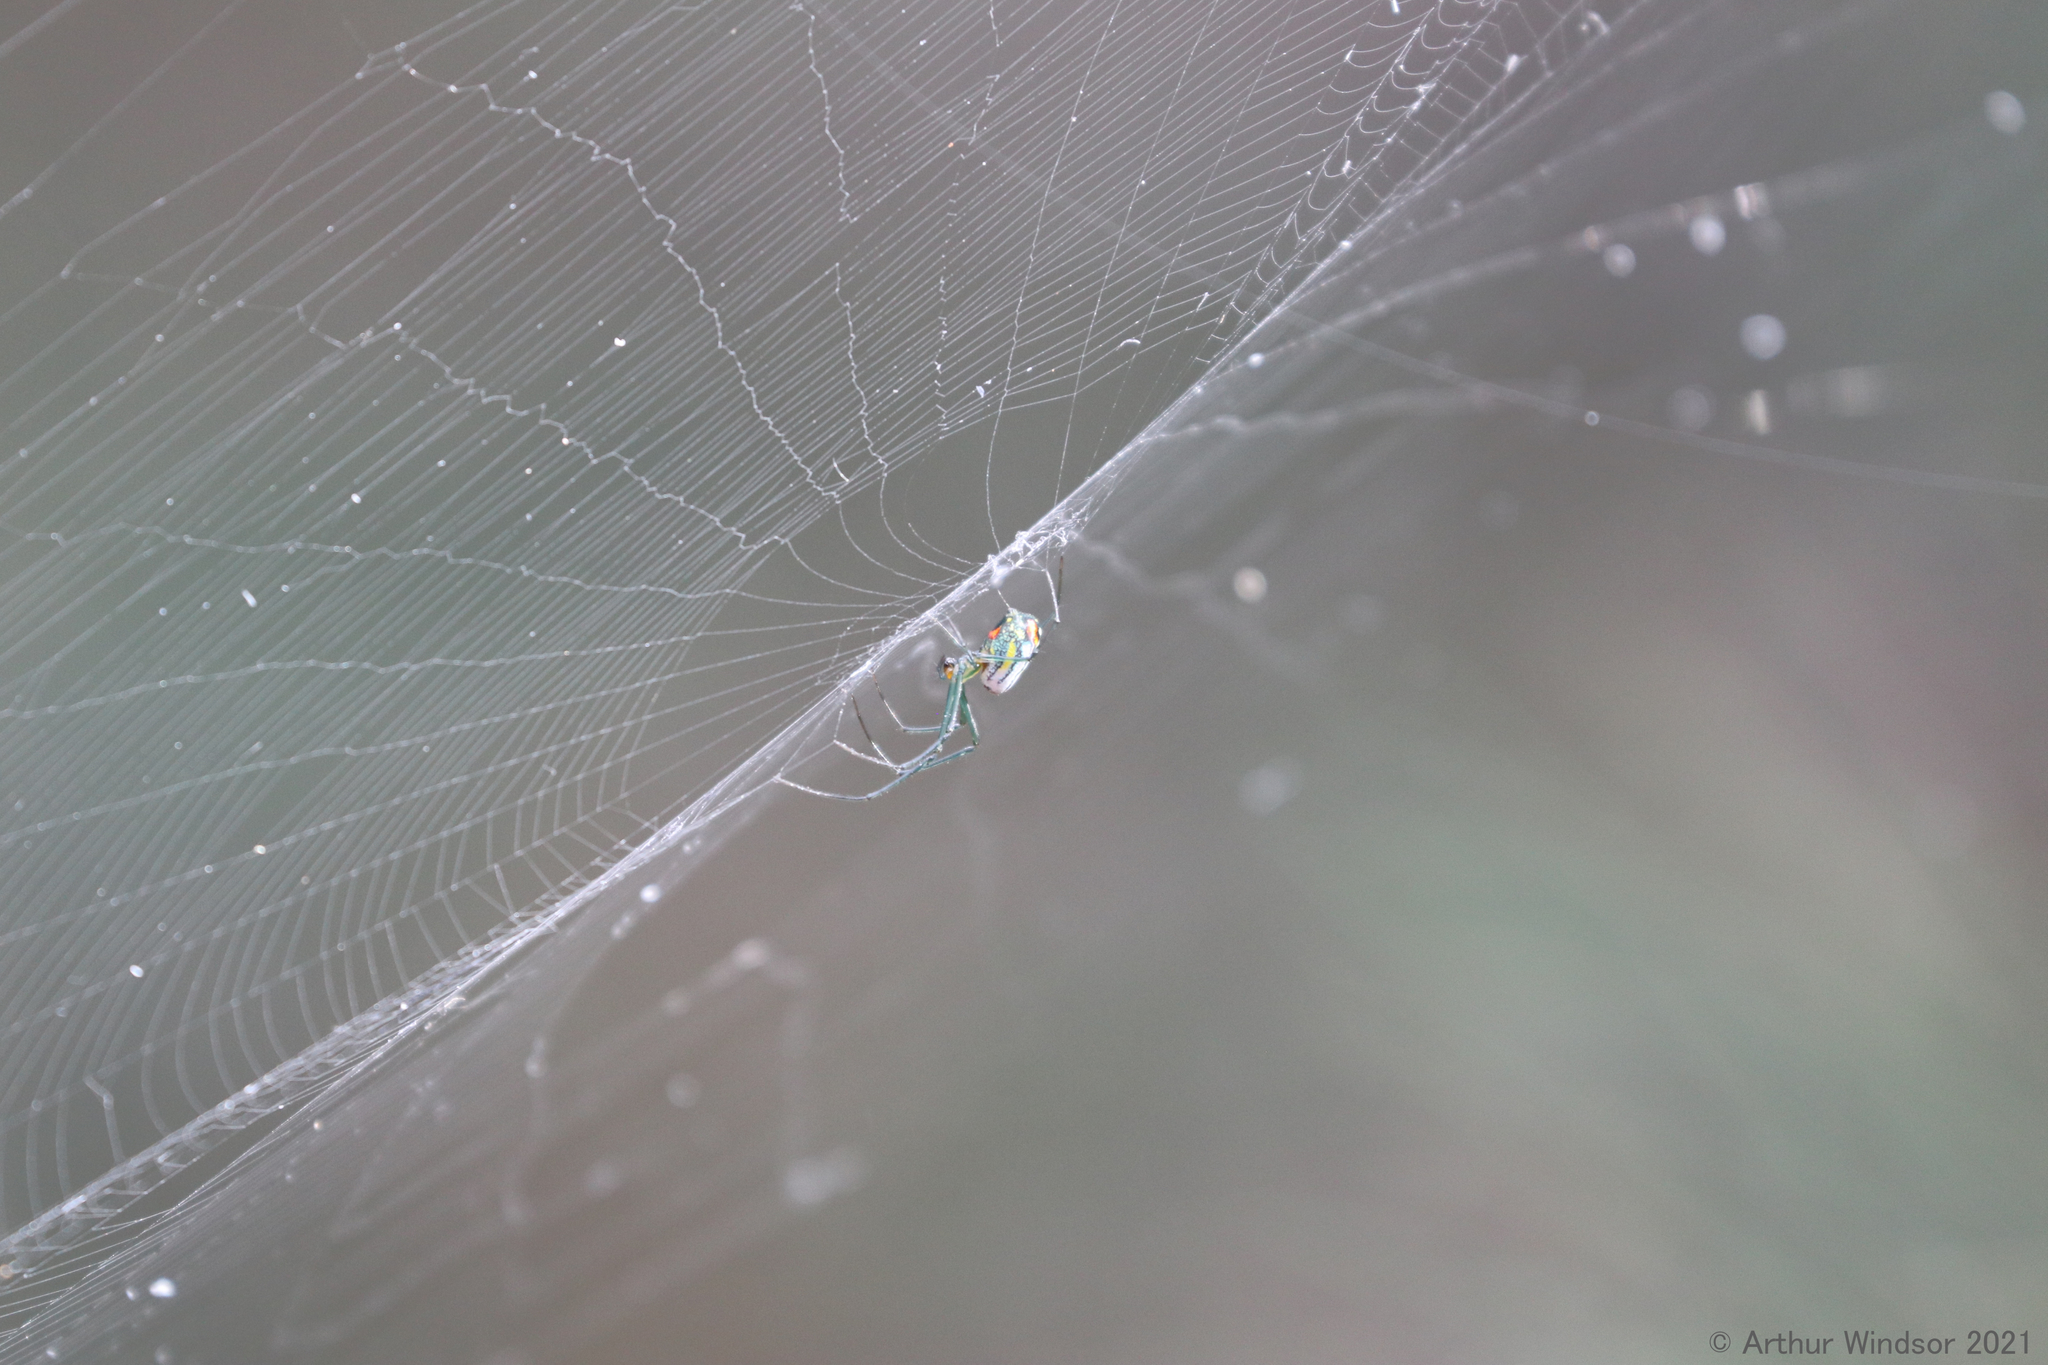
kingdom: Animalia
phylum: Arthropoda
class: Arachnida
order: Araneae
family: Tetragnathidae
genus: Leucauge
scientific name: Leucauge argyrobapta
